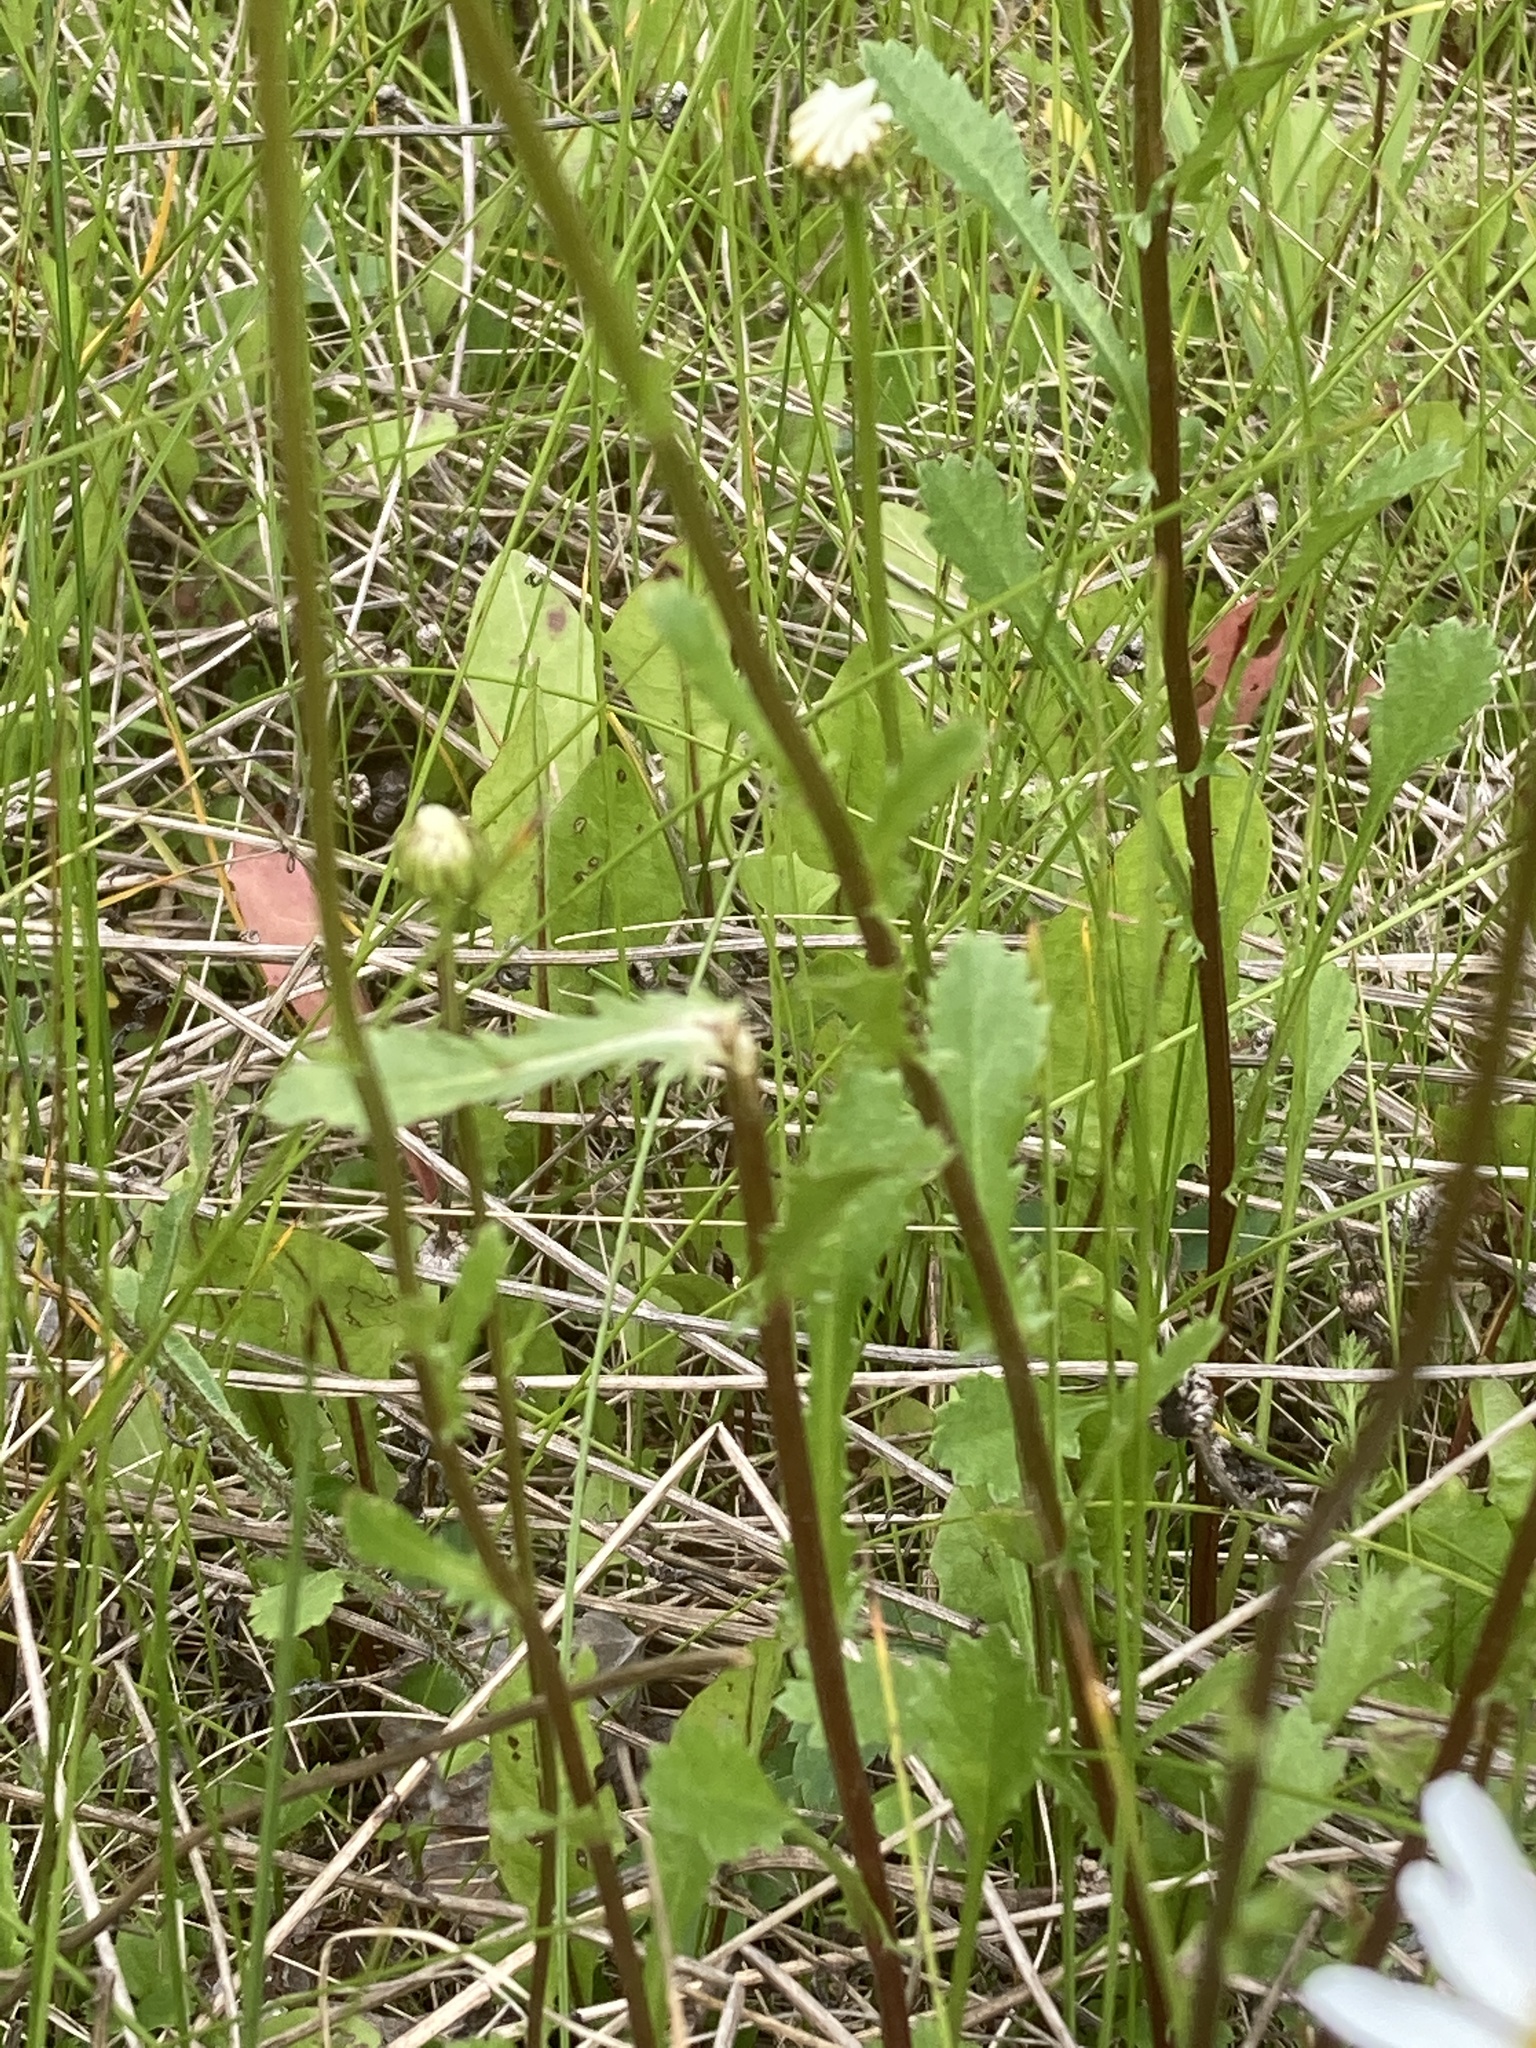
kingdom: Plantae
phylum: Tracheophyta
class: Magnoliopsida
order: Asterales
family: Asteraceae
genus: Leucanthemum
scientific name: Leucanthemum vulgare
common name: Oxeye daisy
